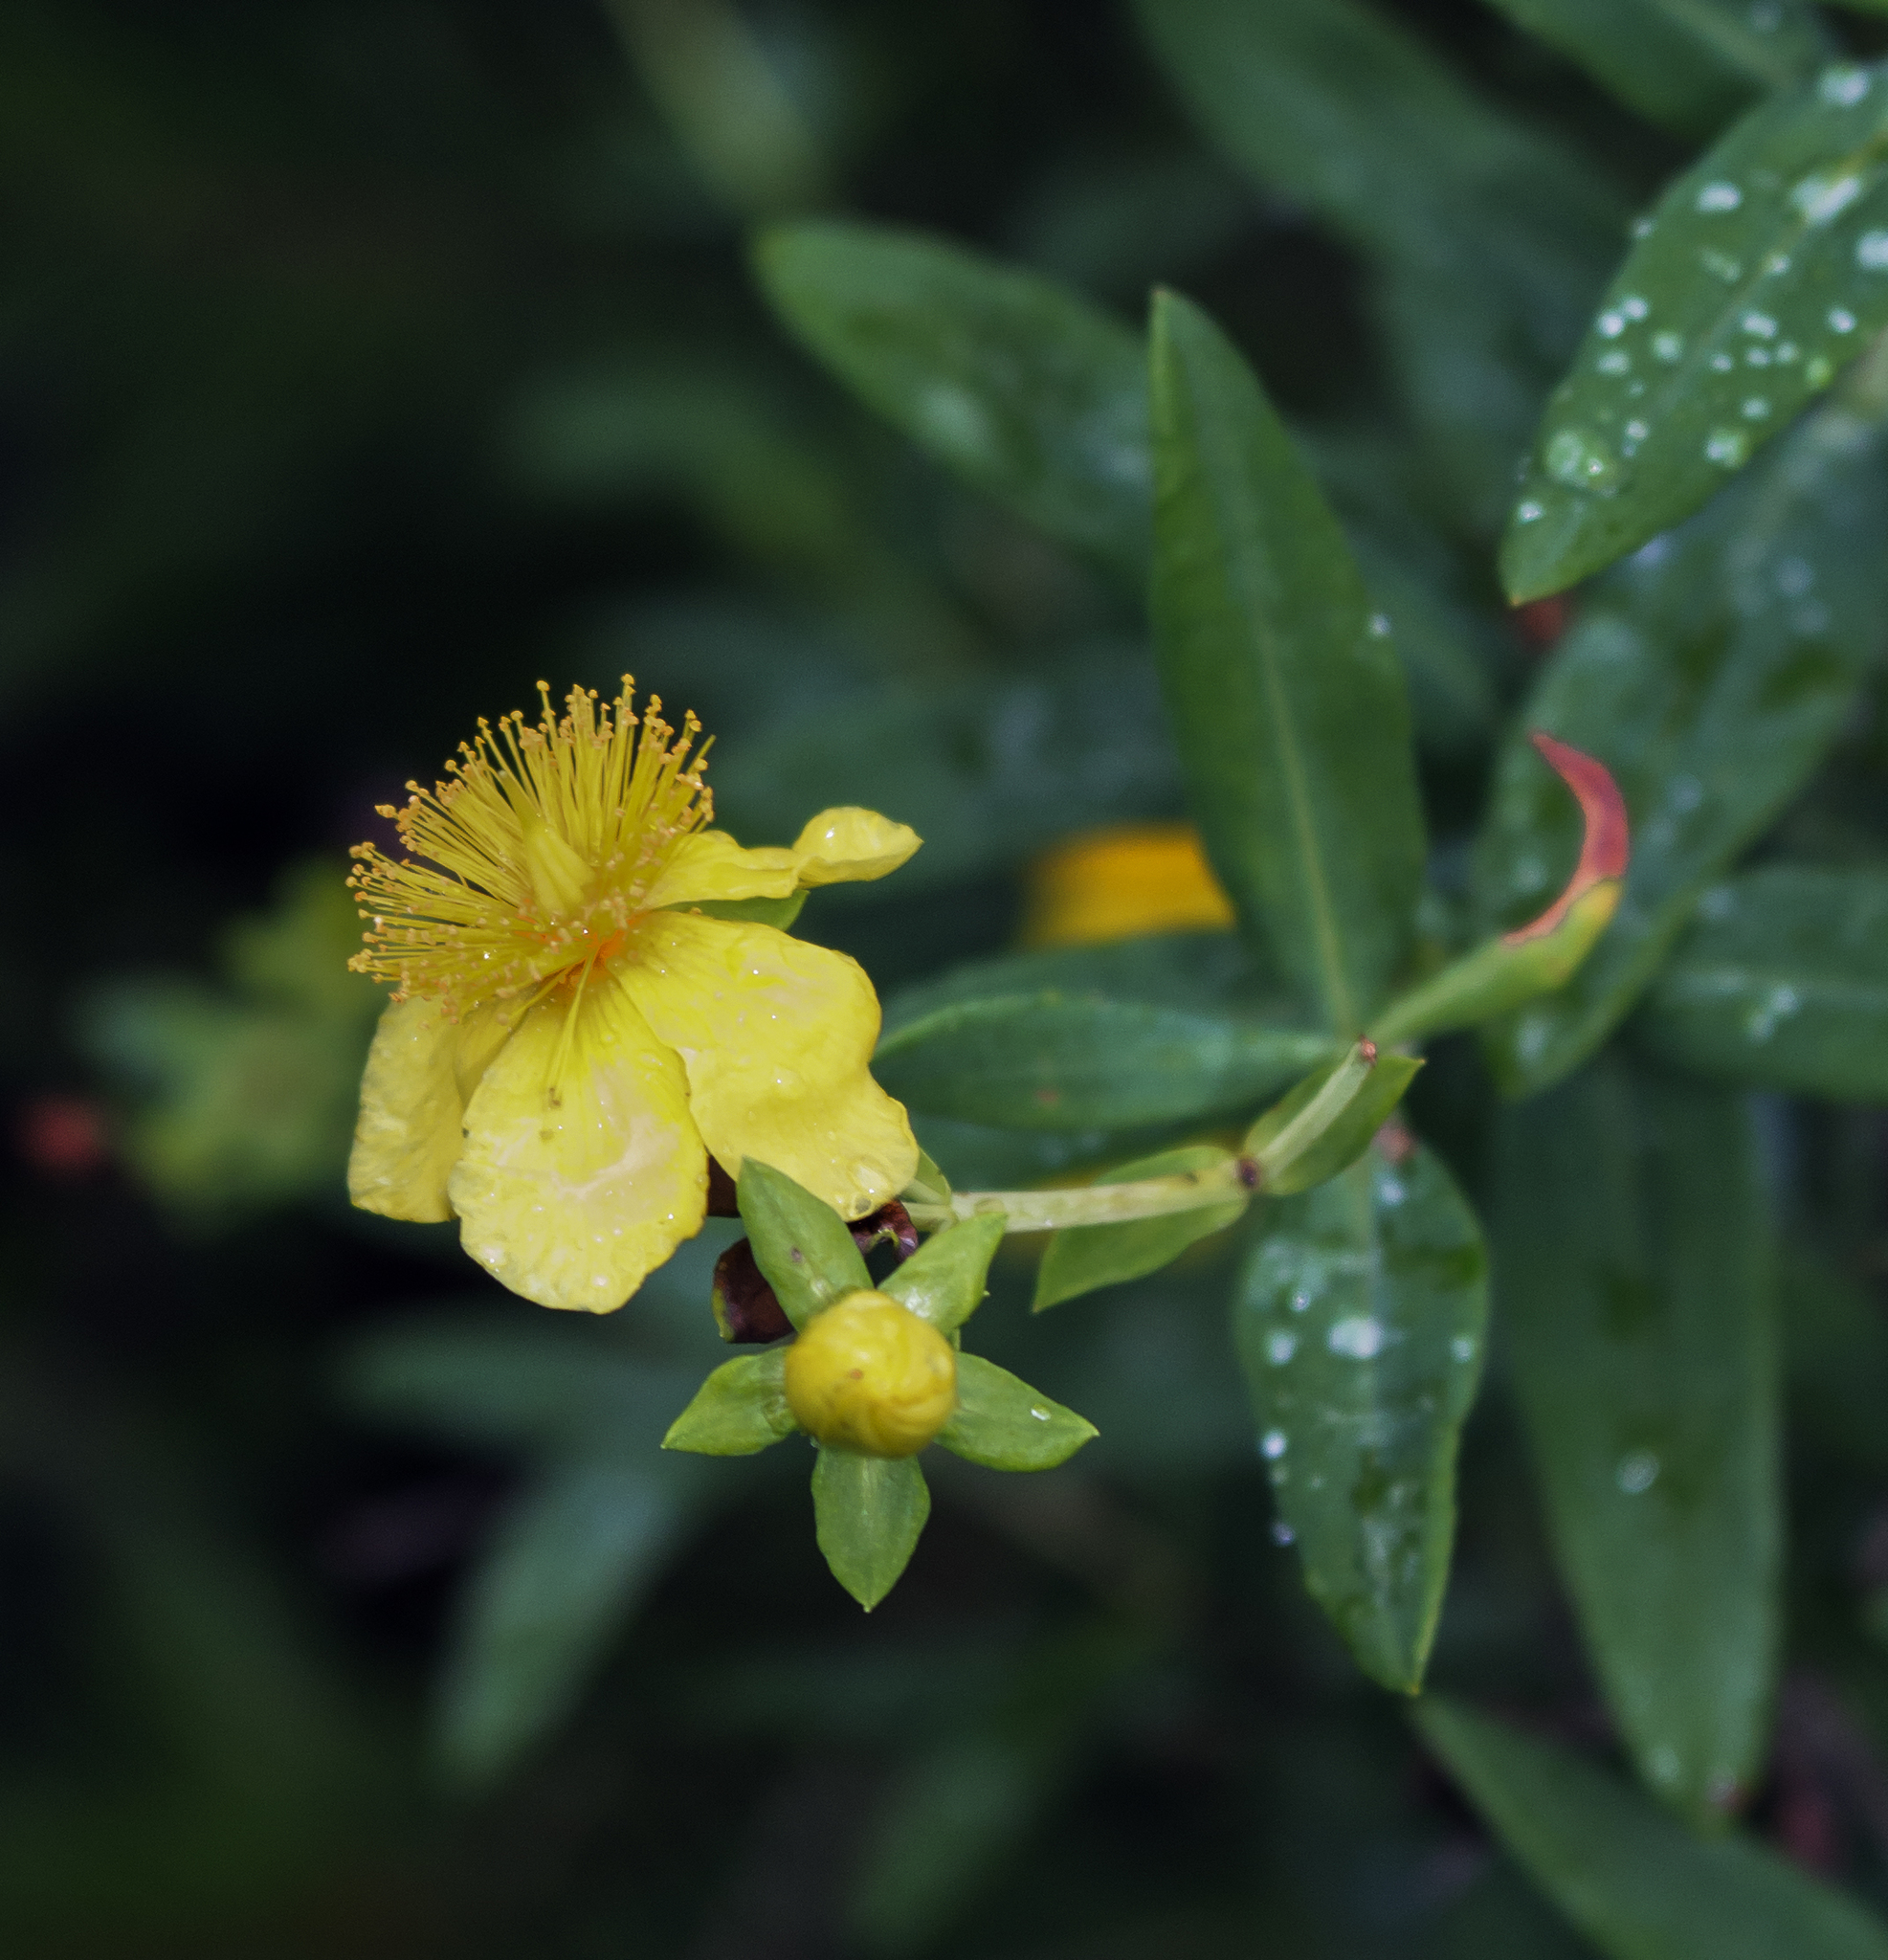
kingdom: Plantae
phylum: Tracheophyta
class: Magnoliopsida
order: Malpighiales
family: Hypericaceae
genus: Hypericum
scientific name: Hypericum kalmianum
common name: Kalm's st. john's-wort
